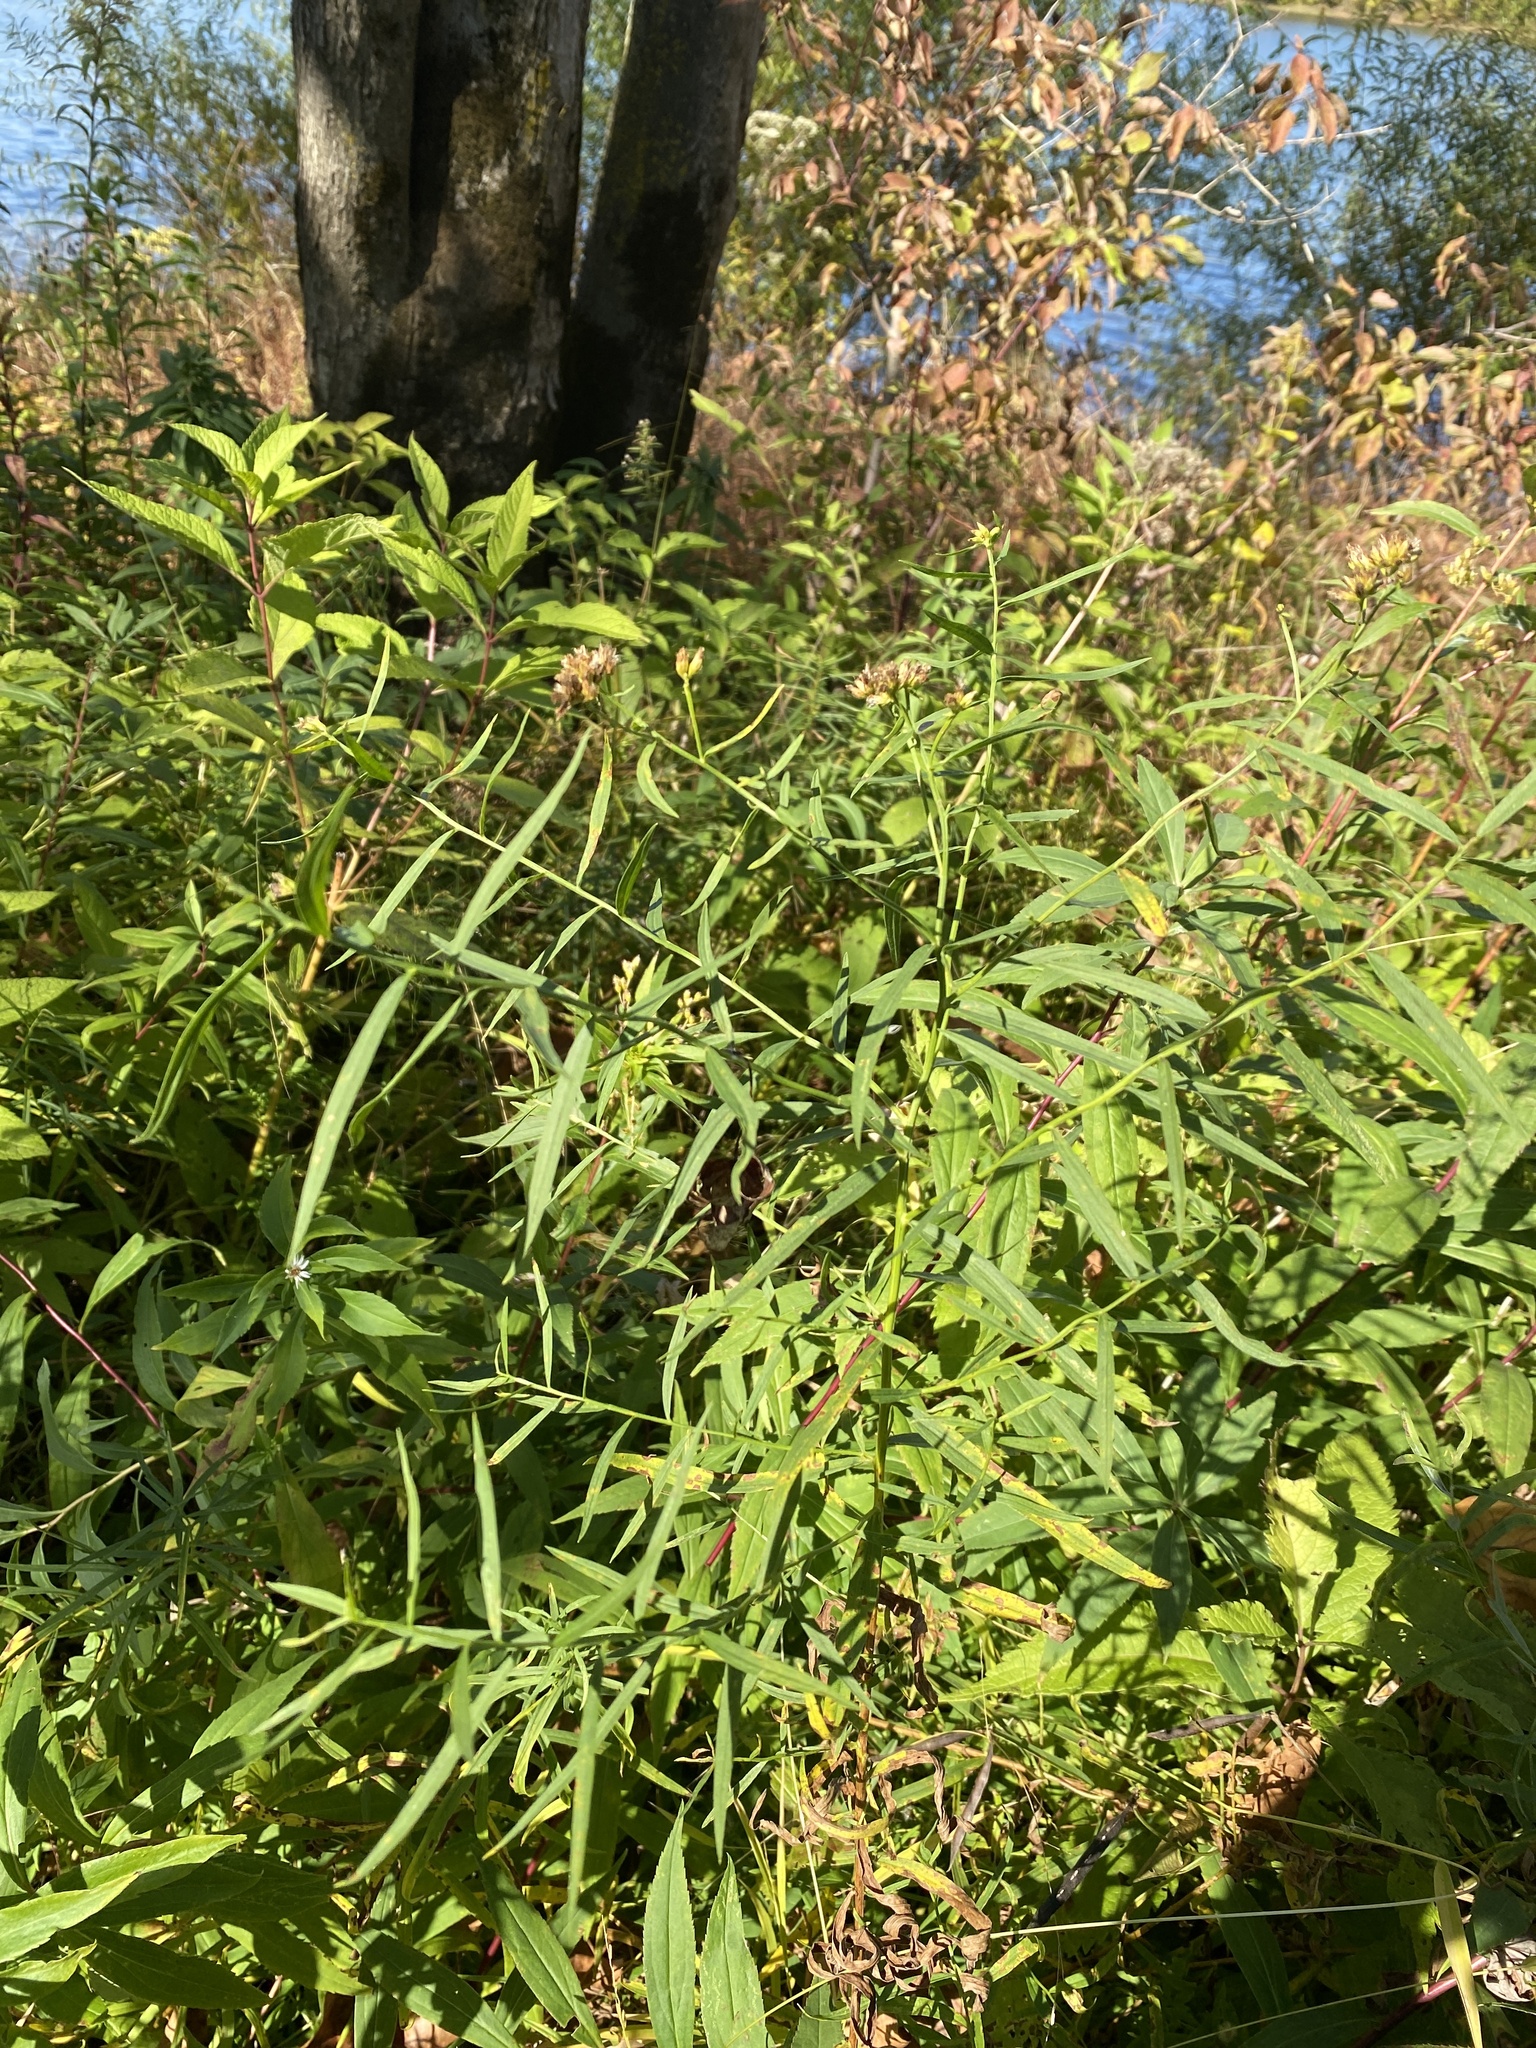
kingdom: Plantae
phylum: Tracheophyta
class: Magnoliopsida
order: Asterales
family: Asteraceae
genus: Euthamia
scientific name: Euthamia graminifolia
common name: Common goldentop
